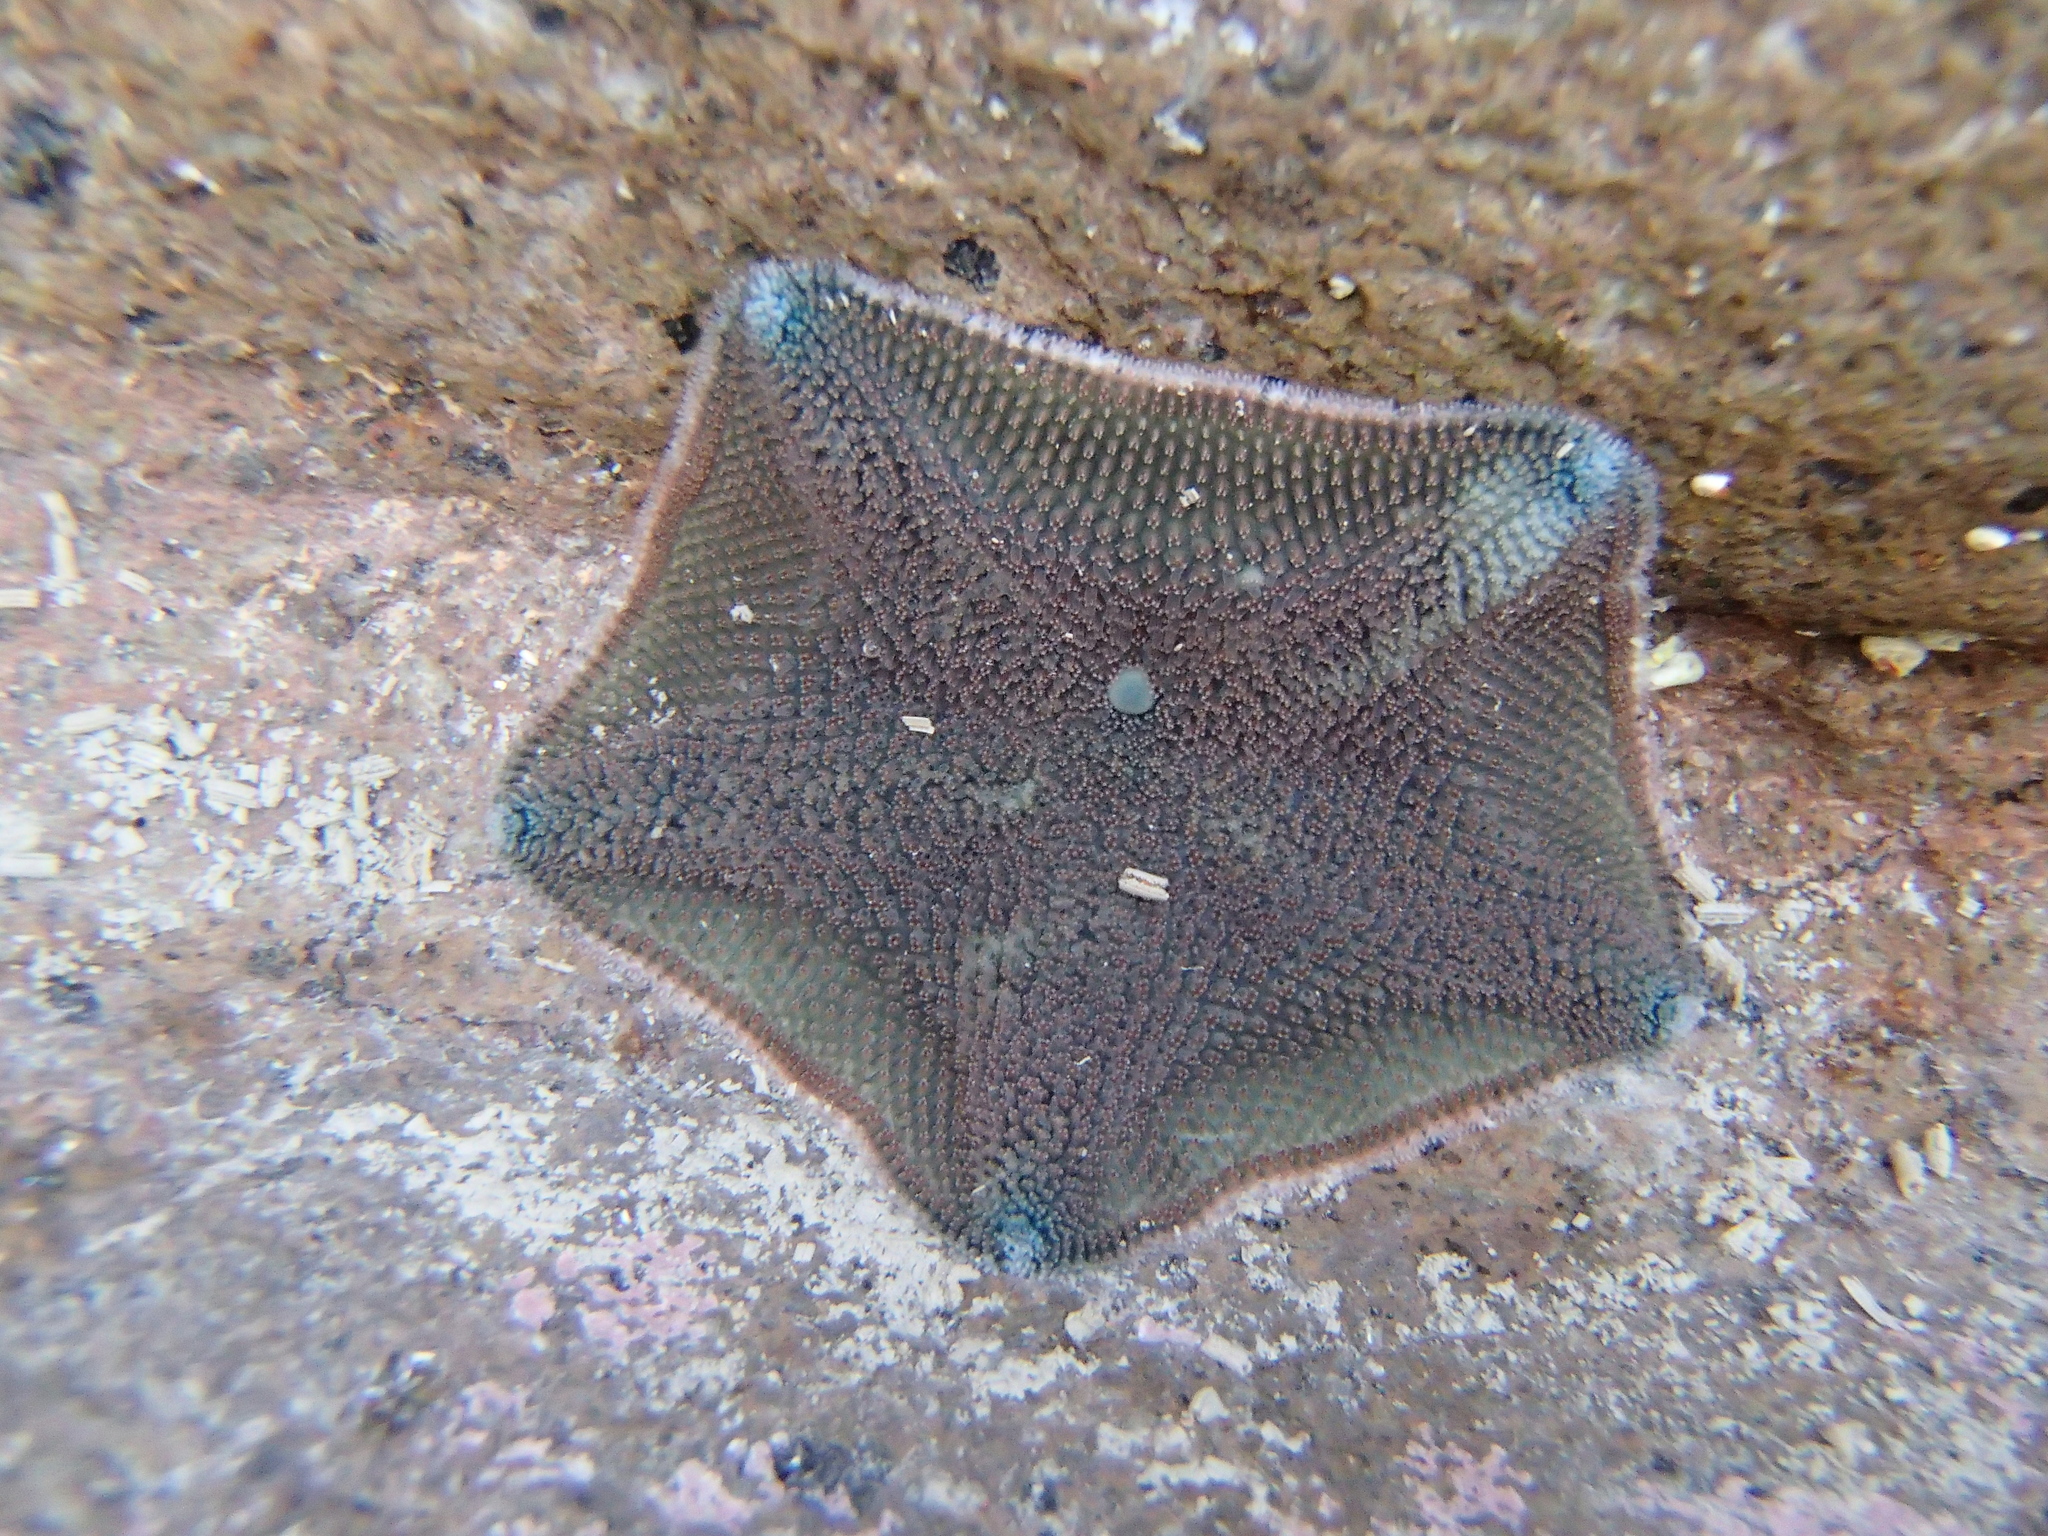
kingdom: Animalia
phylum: Echinodermata
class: Asteroidea
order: Valvatida
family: Asterinidae
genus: Patiriella
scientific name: Patiriella regularis
